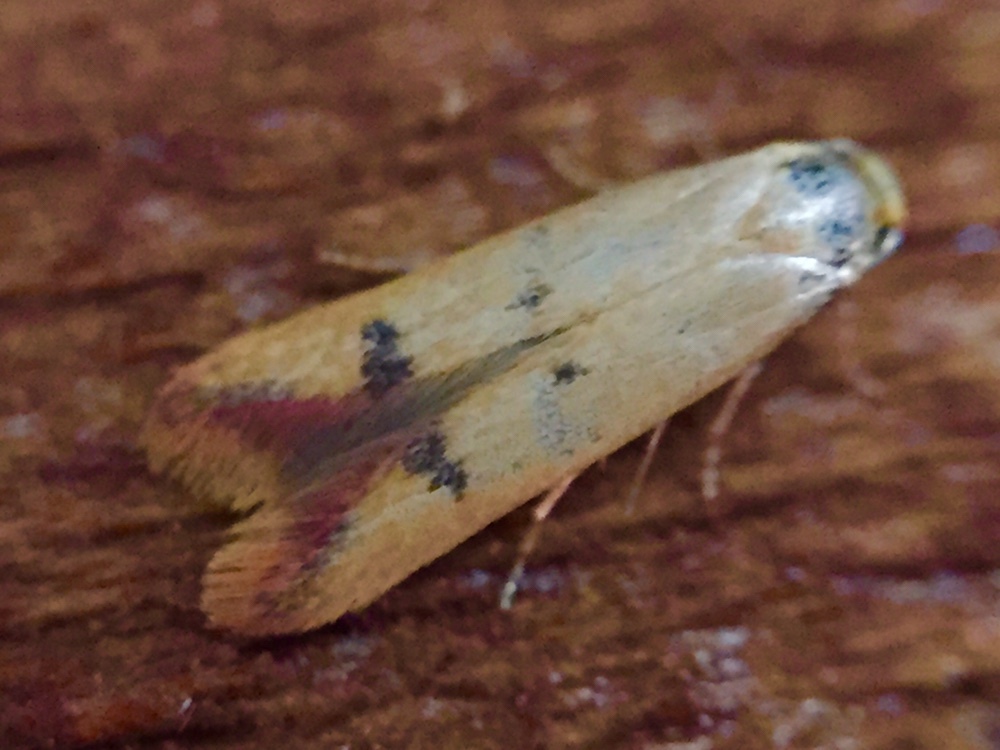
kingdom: Animalia
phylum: Arthropoda
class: Insecta
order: Lepidoptera
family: Oecophoridae
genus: Tachystola
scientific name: Tachystola hemisema
